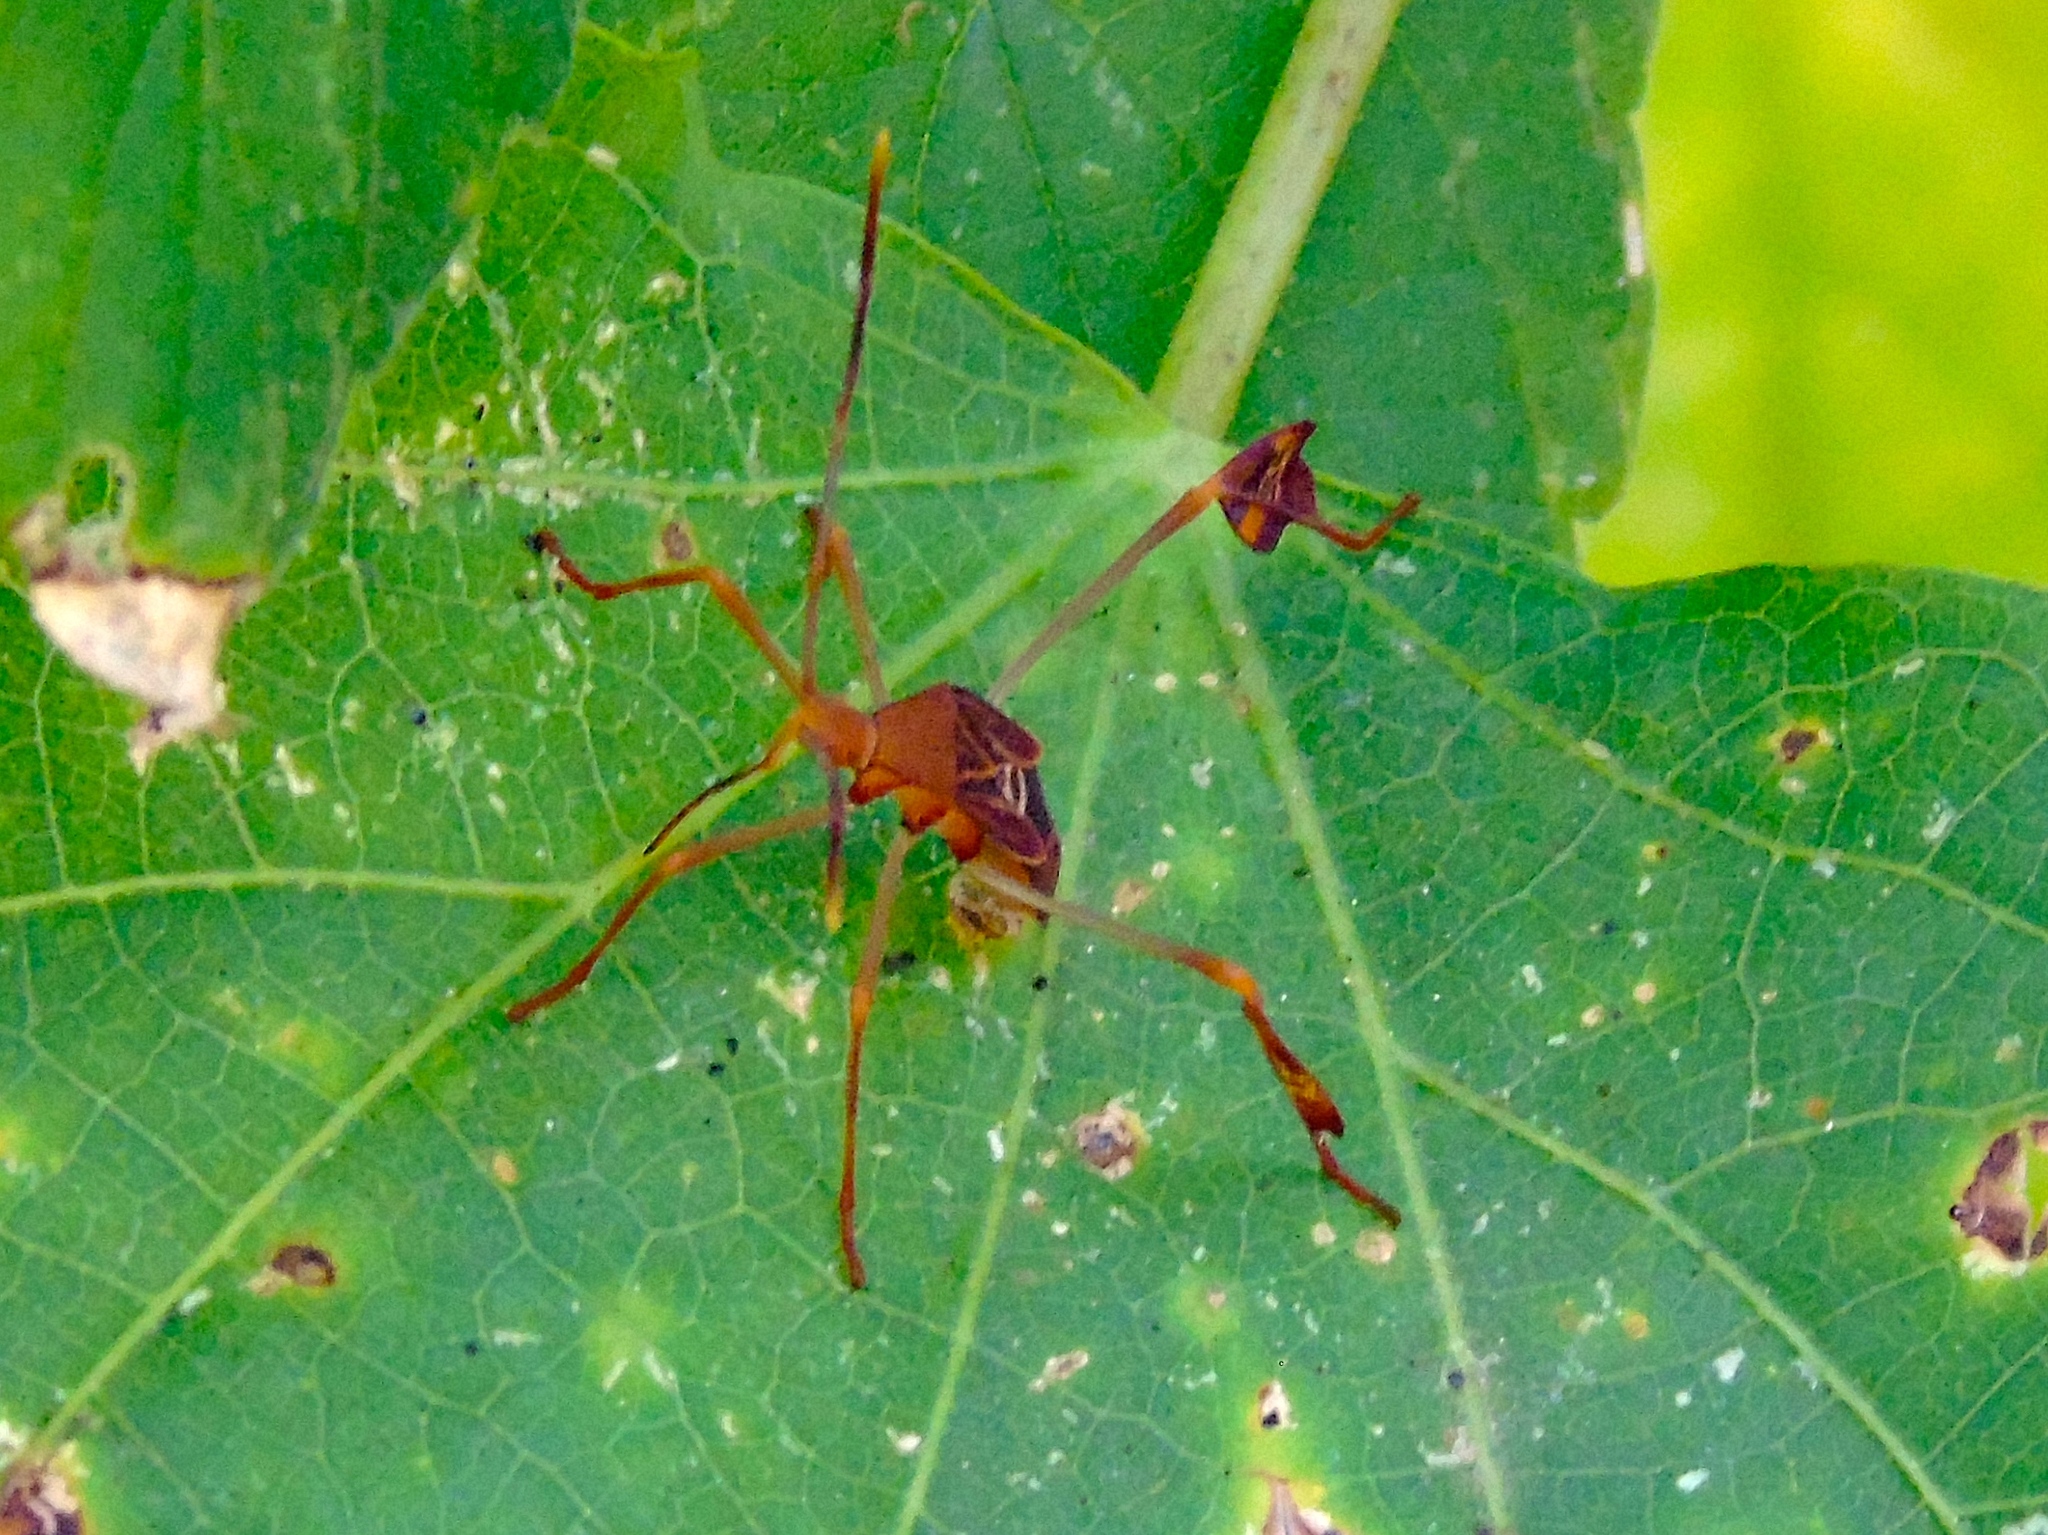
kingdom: Animalia
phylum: Arthropoda
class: Insecta
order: Hemiptera
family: Coreidae
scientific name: Coreidae
